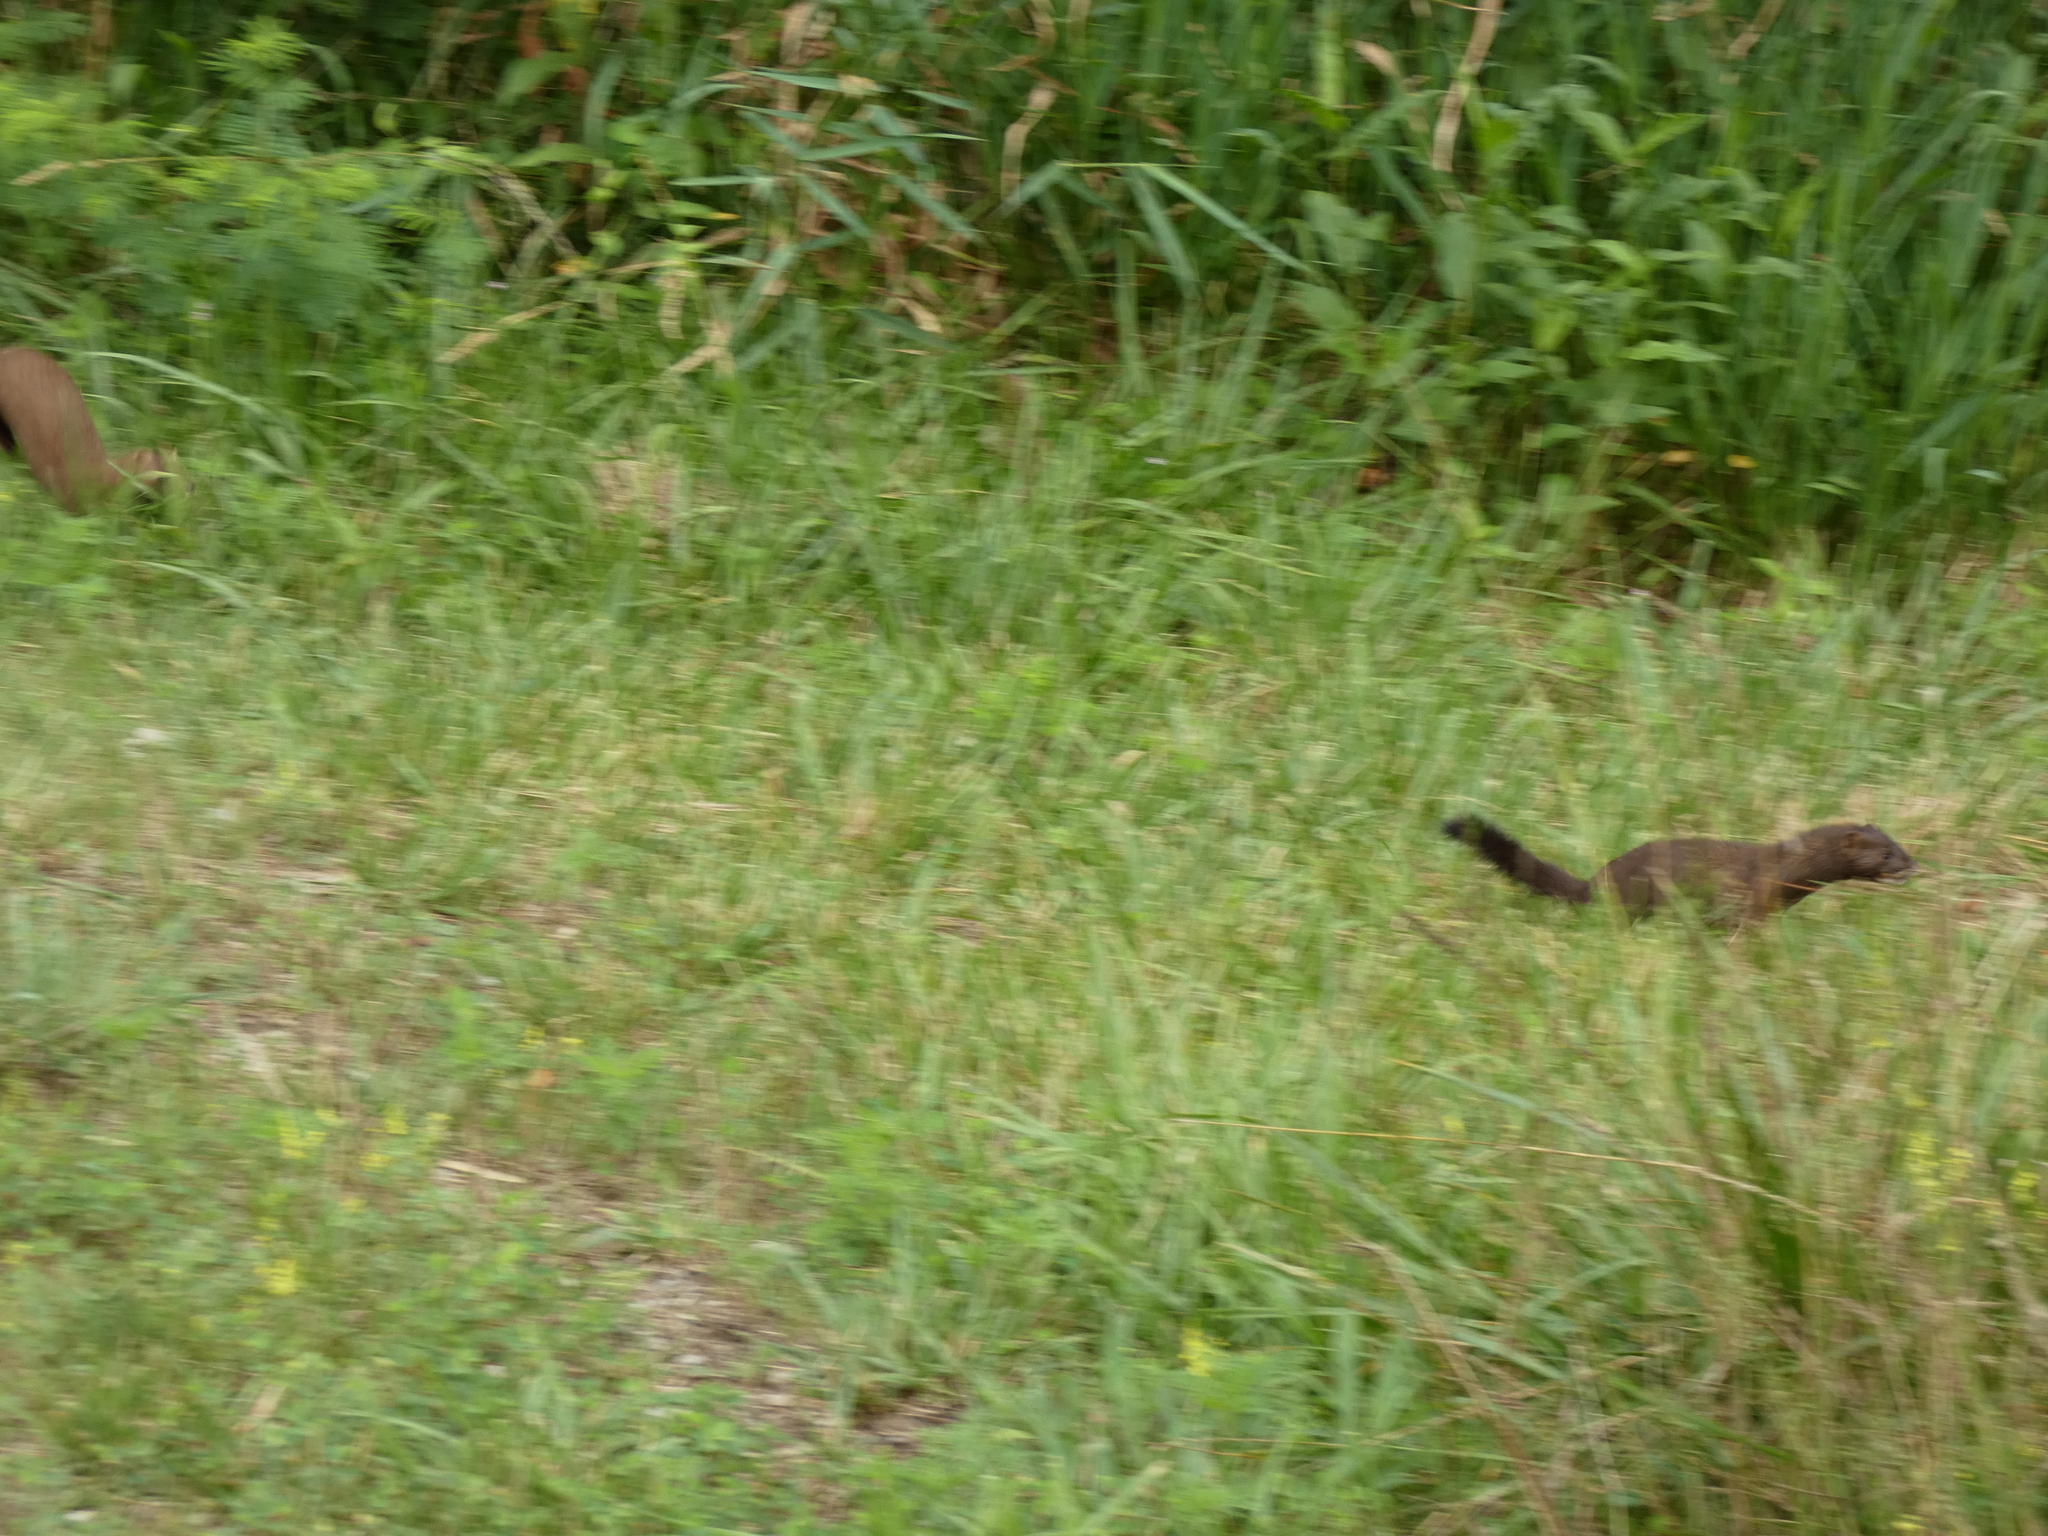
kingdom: Animalia
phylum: Chordata
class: Mammalia
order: Carnivora
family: Mustelidae
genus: Mustela
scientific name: Mustela
